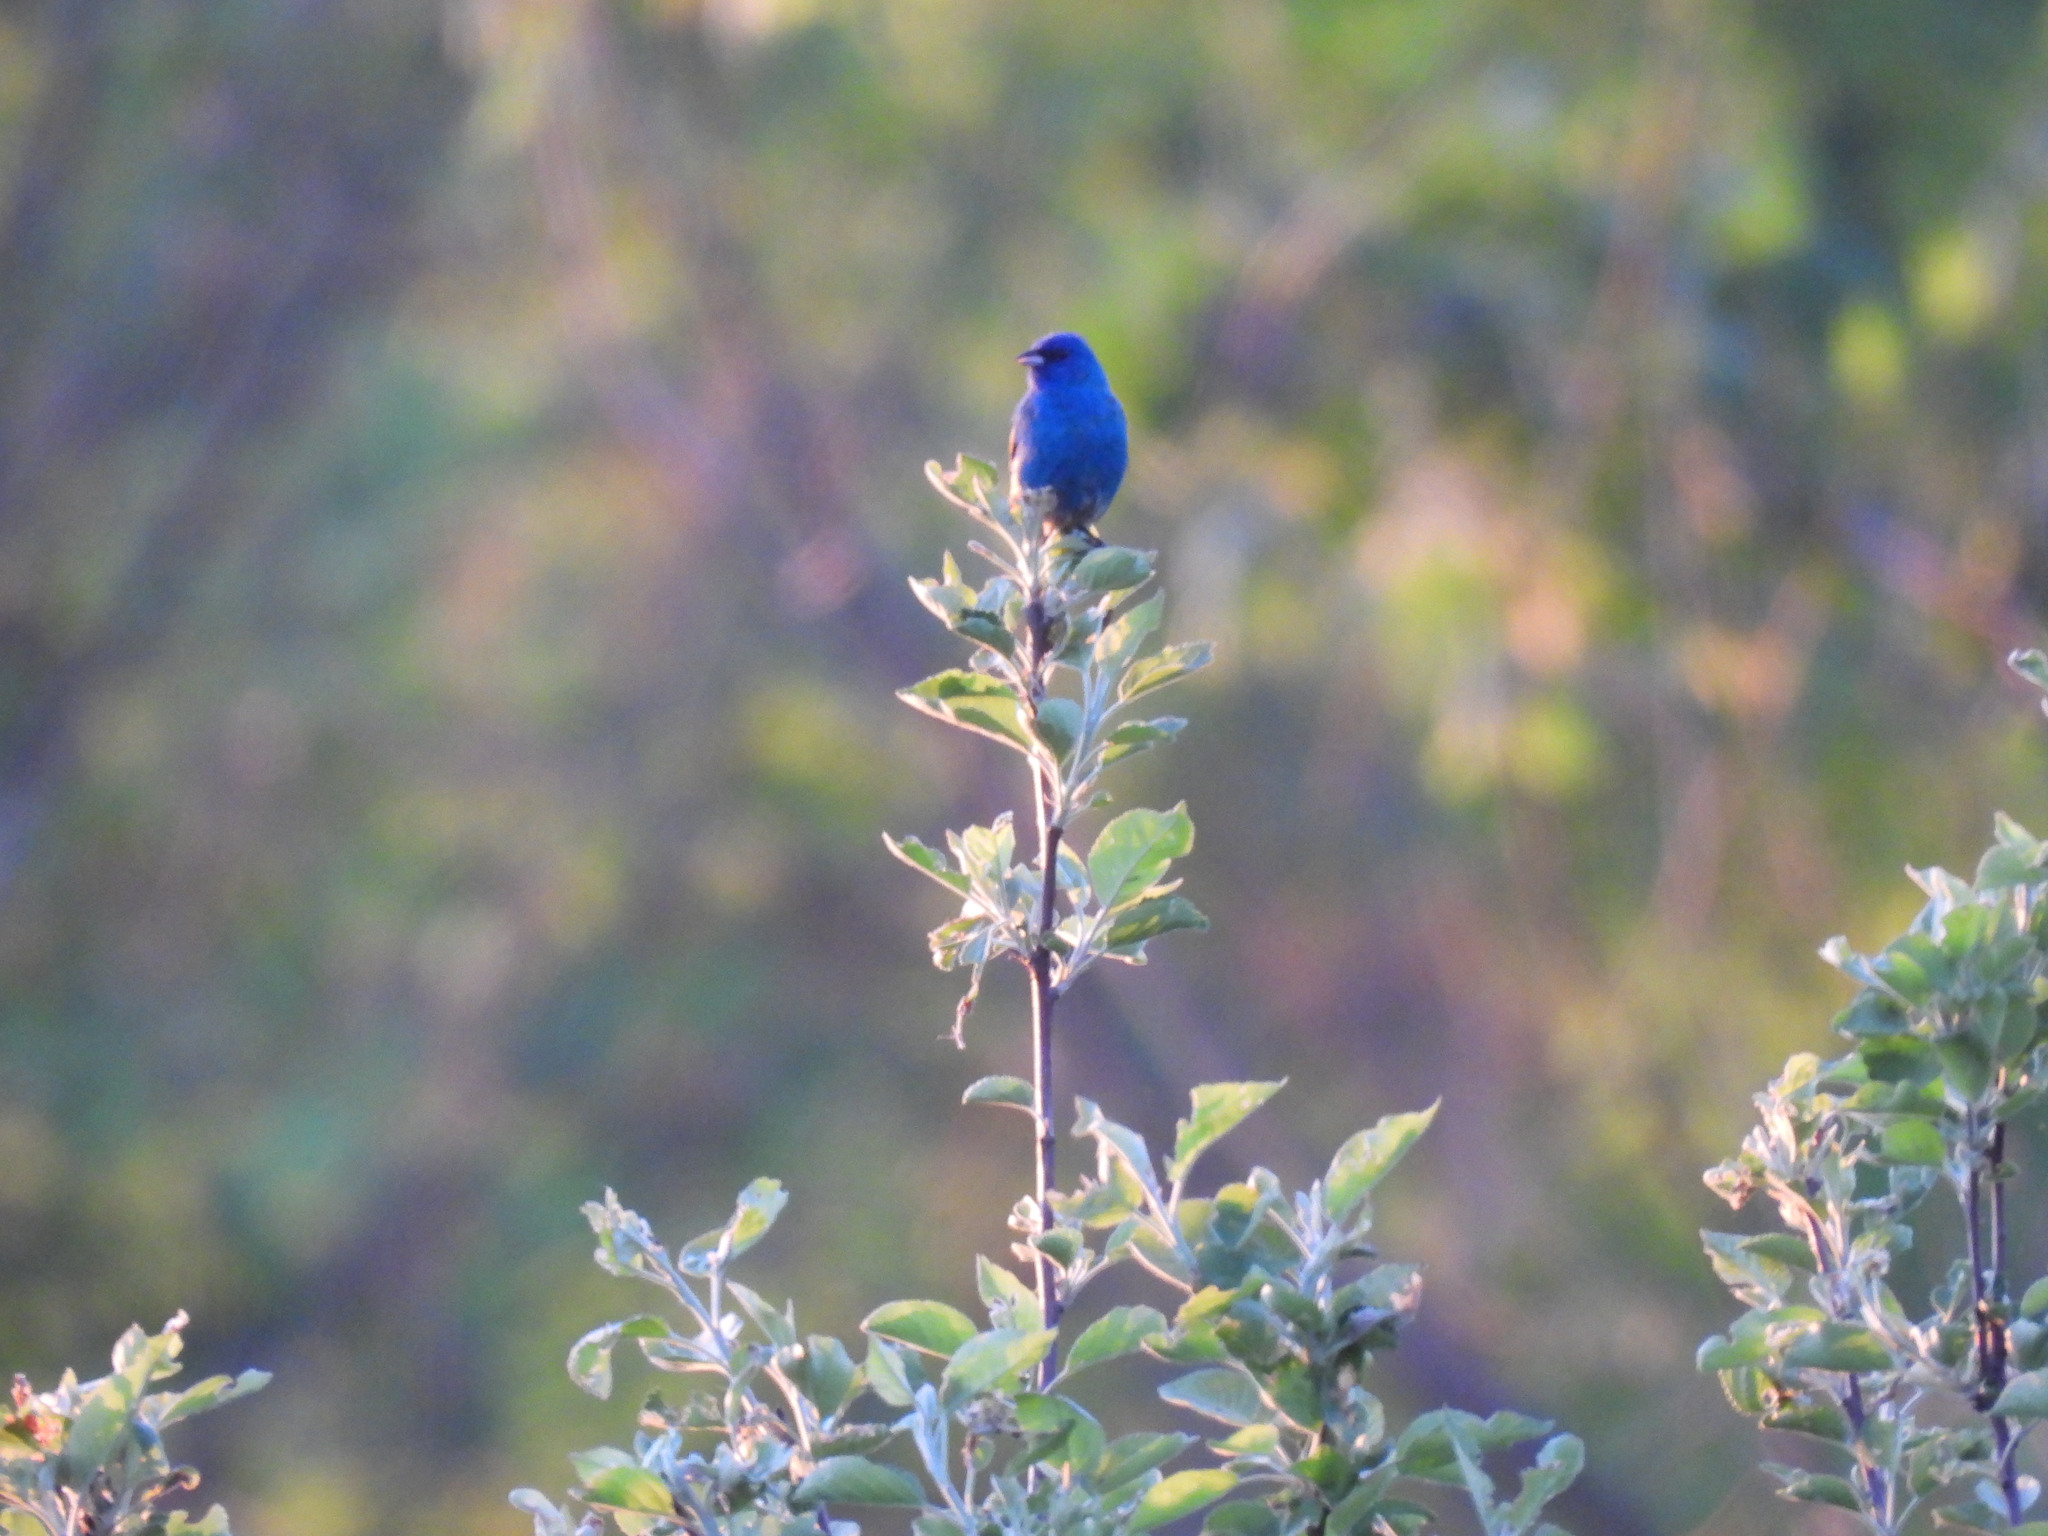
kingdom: Animalia
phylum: Chordata
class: Aves
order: Passeriformes
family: Cardinalidae
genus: Passerina
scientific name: Passerina cyanea
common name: Indigo bunting
